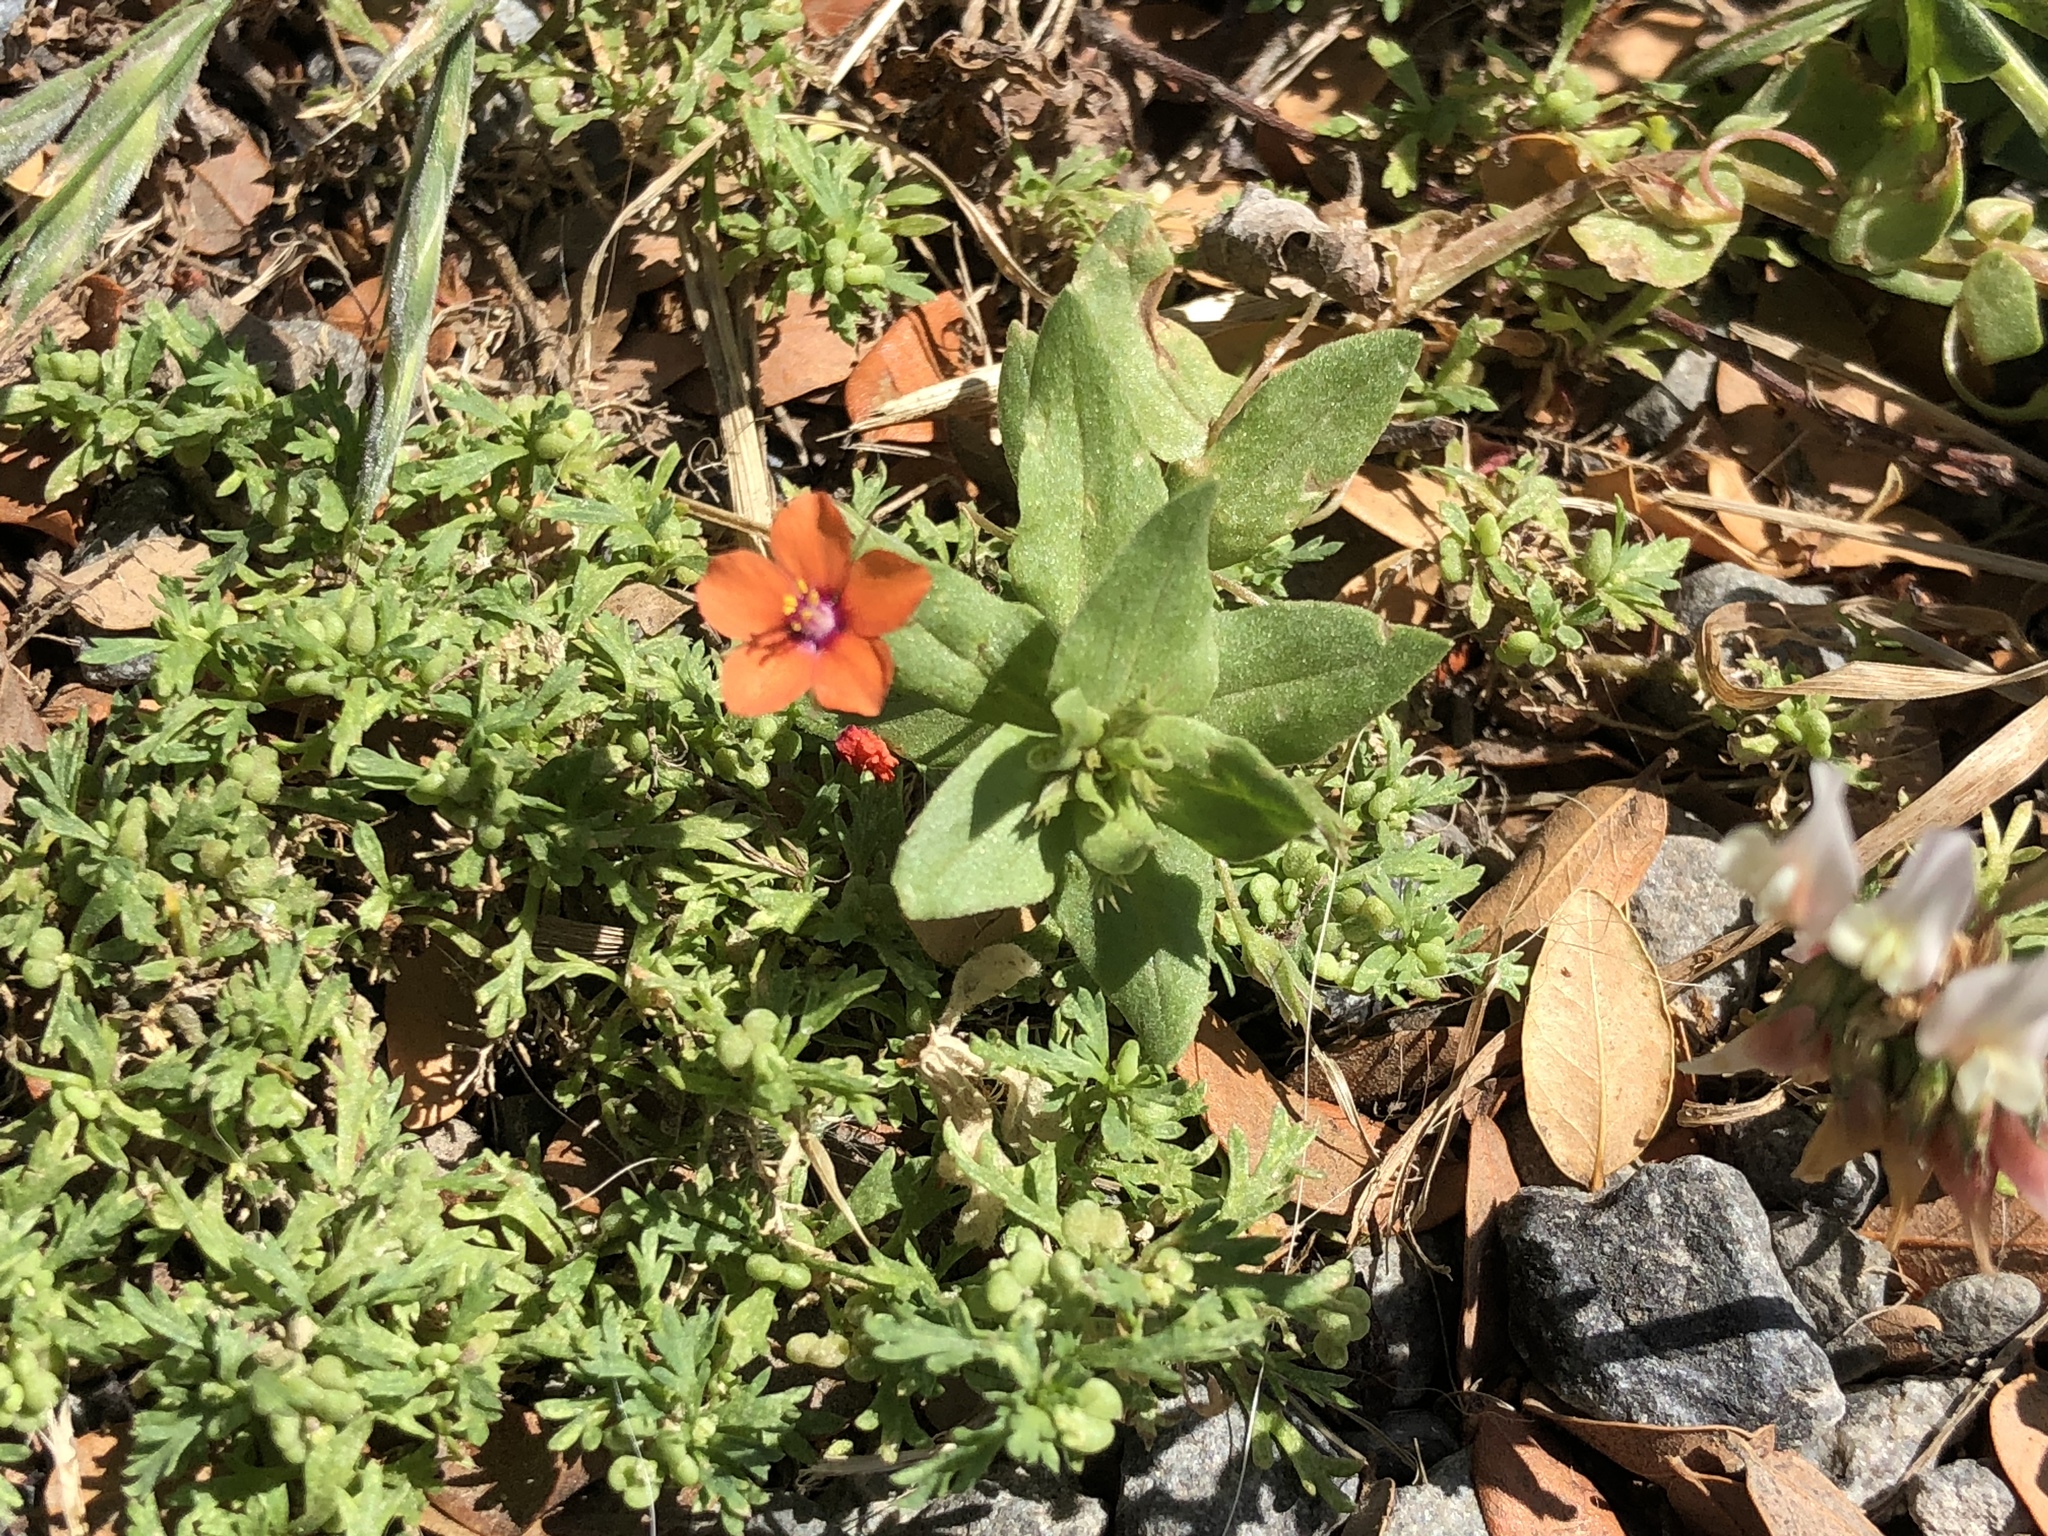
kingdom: Plantae
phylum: Tracheophyta
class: Magnoliopsida
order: Ericales
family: Primulaceae
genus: Lysimachia
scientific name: Lysimachia arvensis
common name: Scarlet pimpernel
